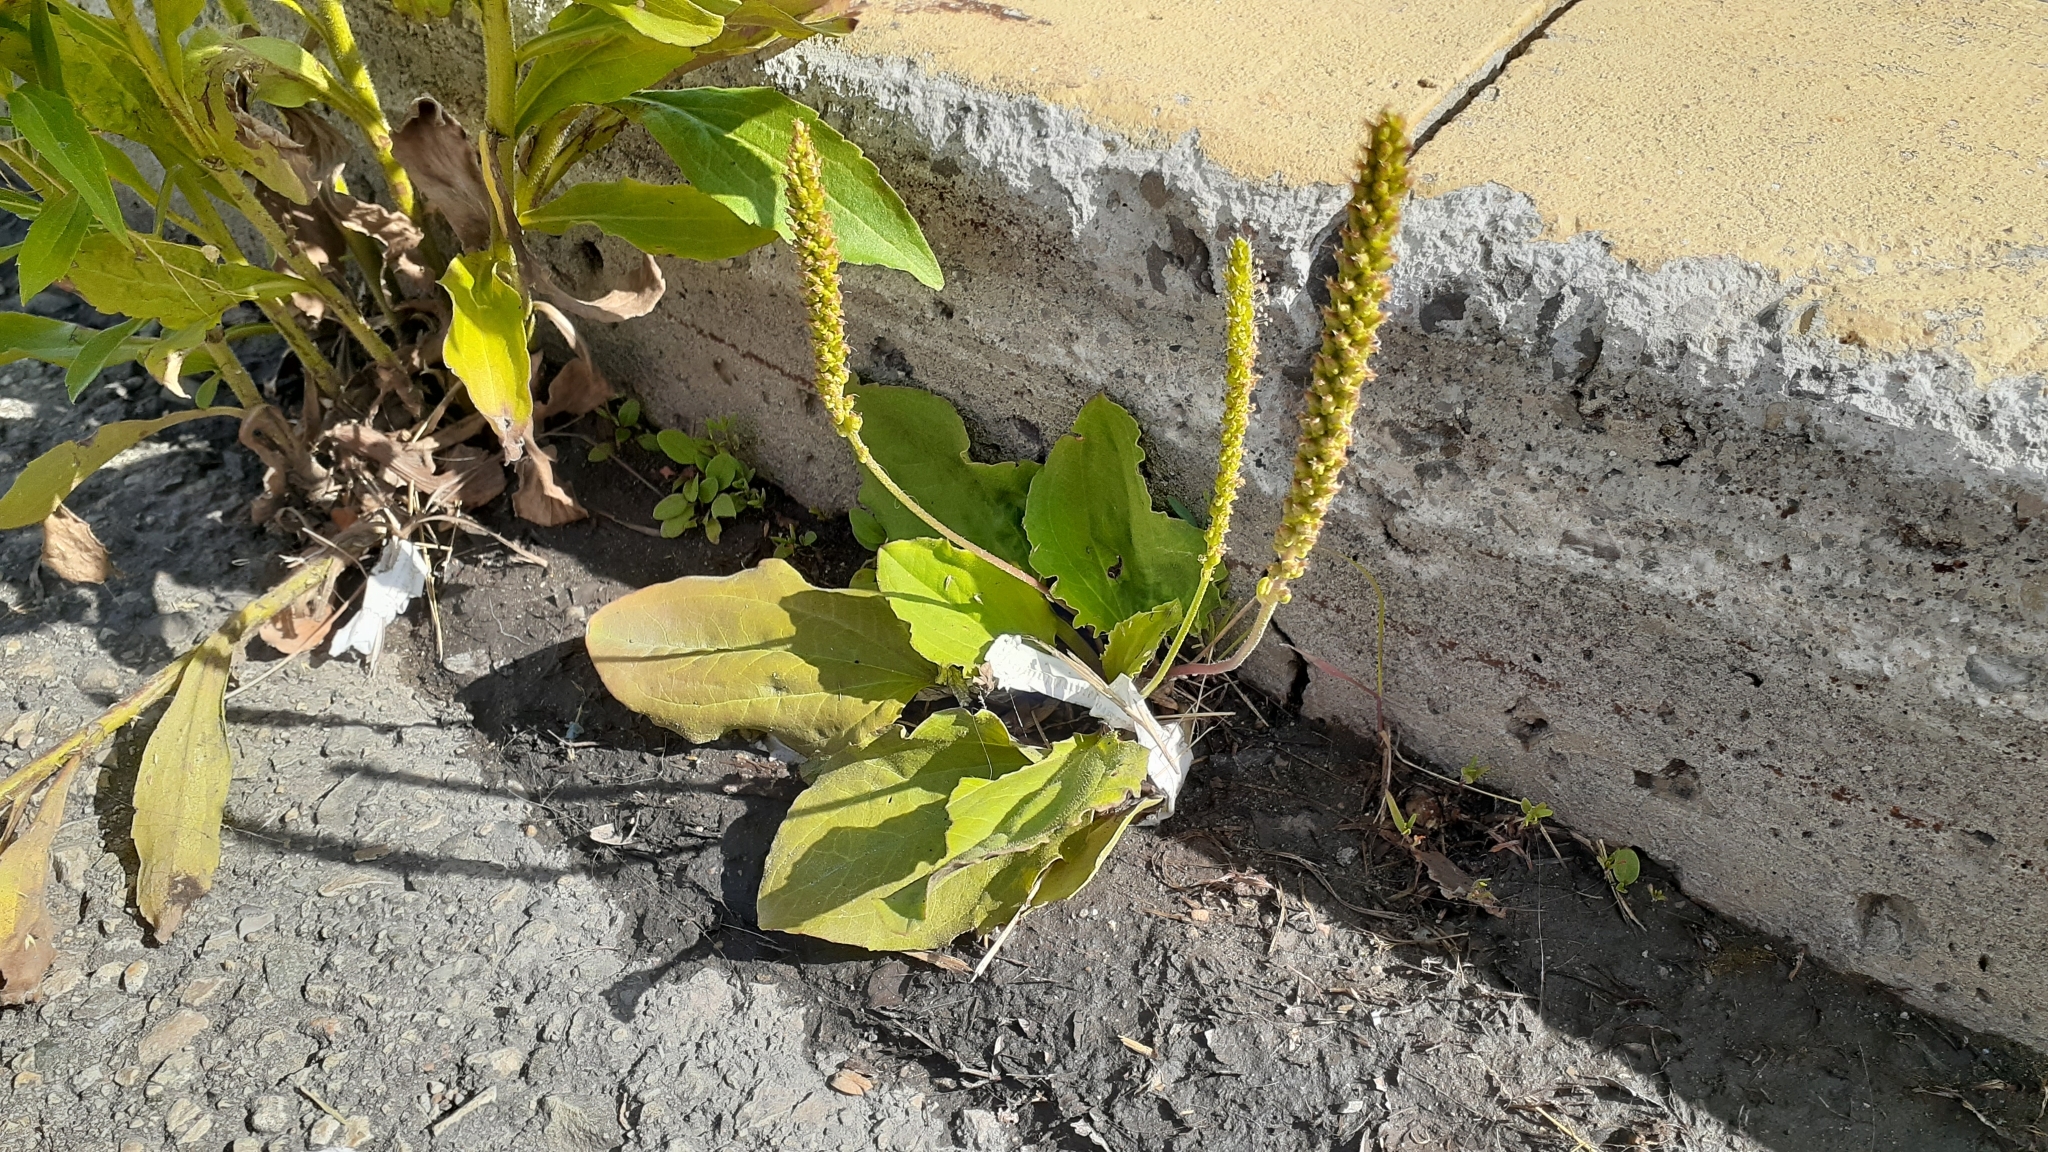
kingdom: Plantae
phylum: Tracheophyta
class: Magnoliopsida
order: Lamiales
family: Plantaginaceae
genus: Plantago
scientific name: Plantago major
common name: Common plantain
